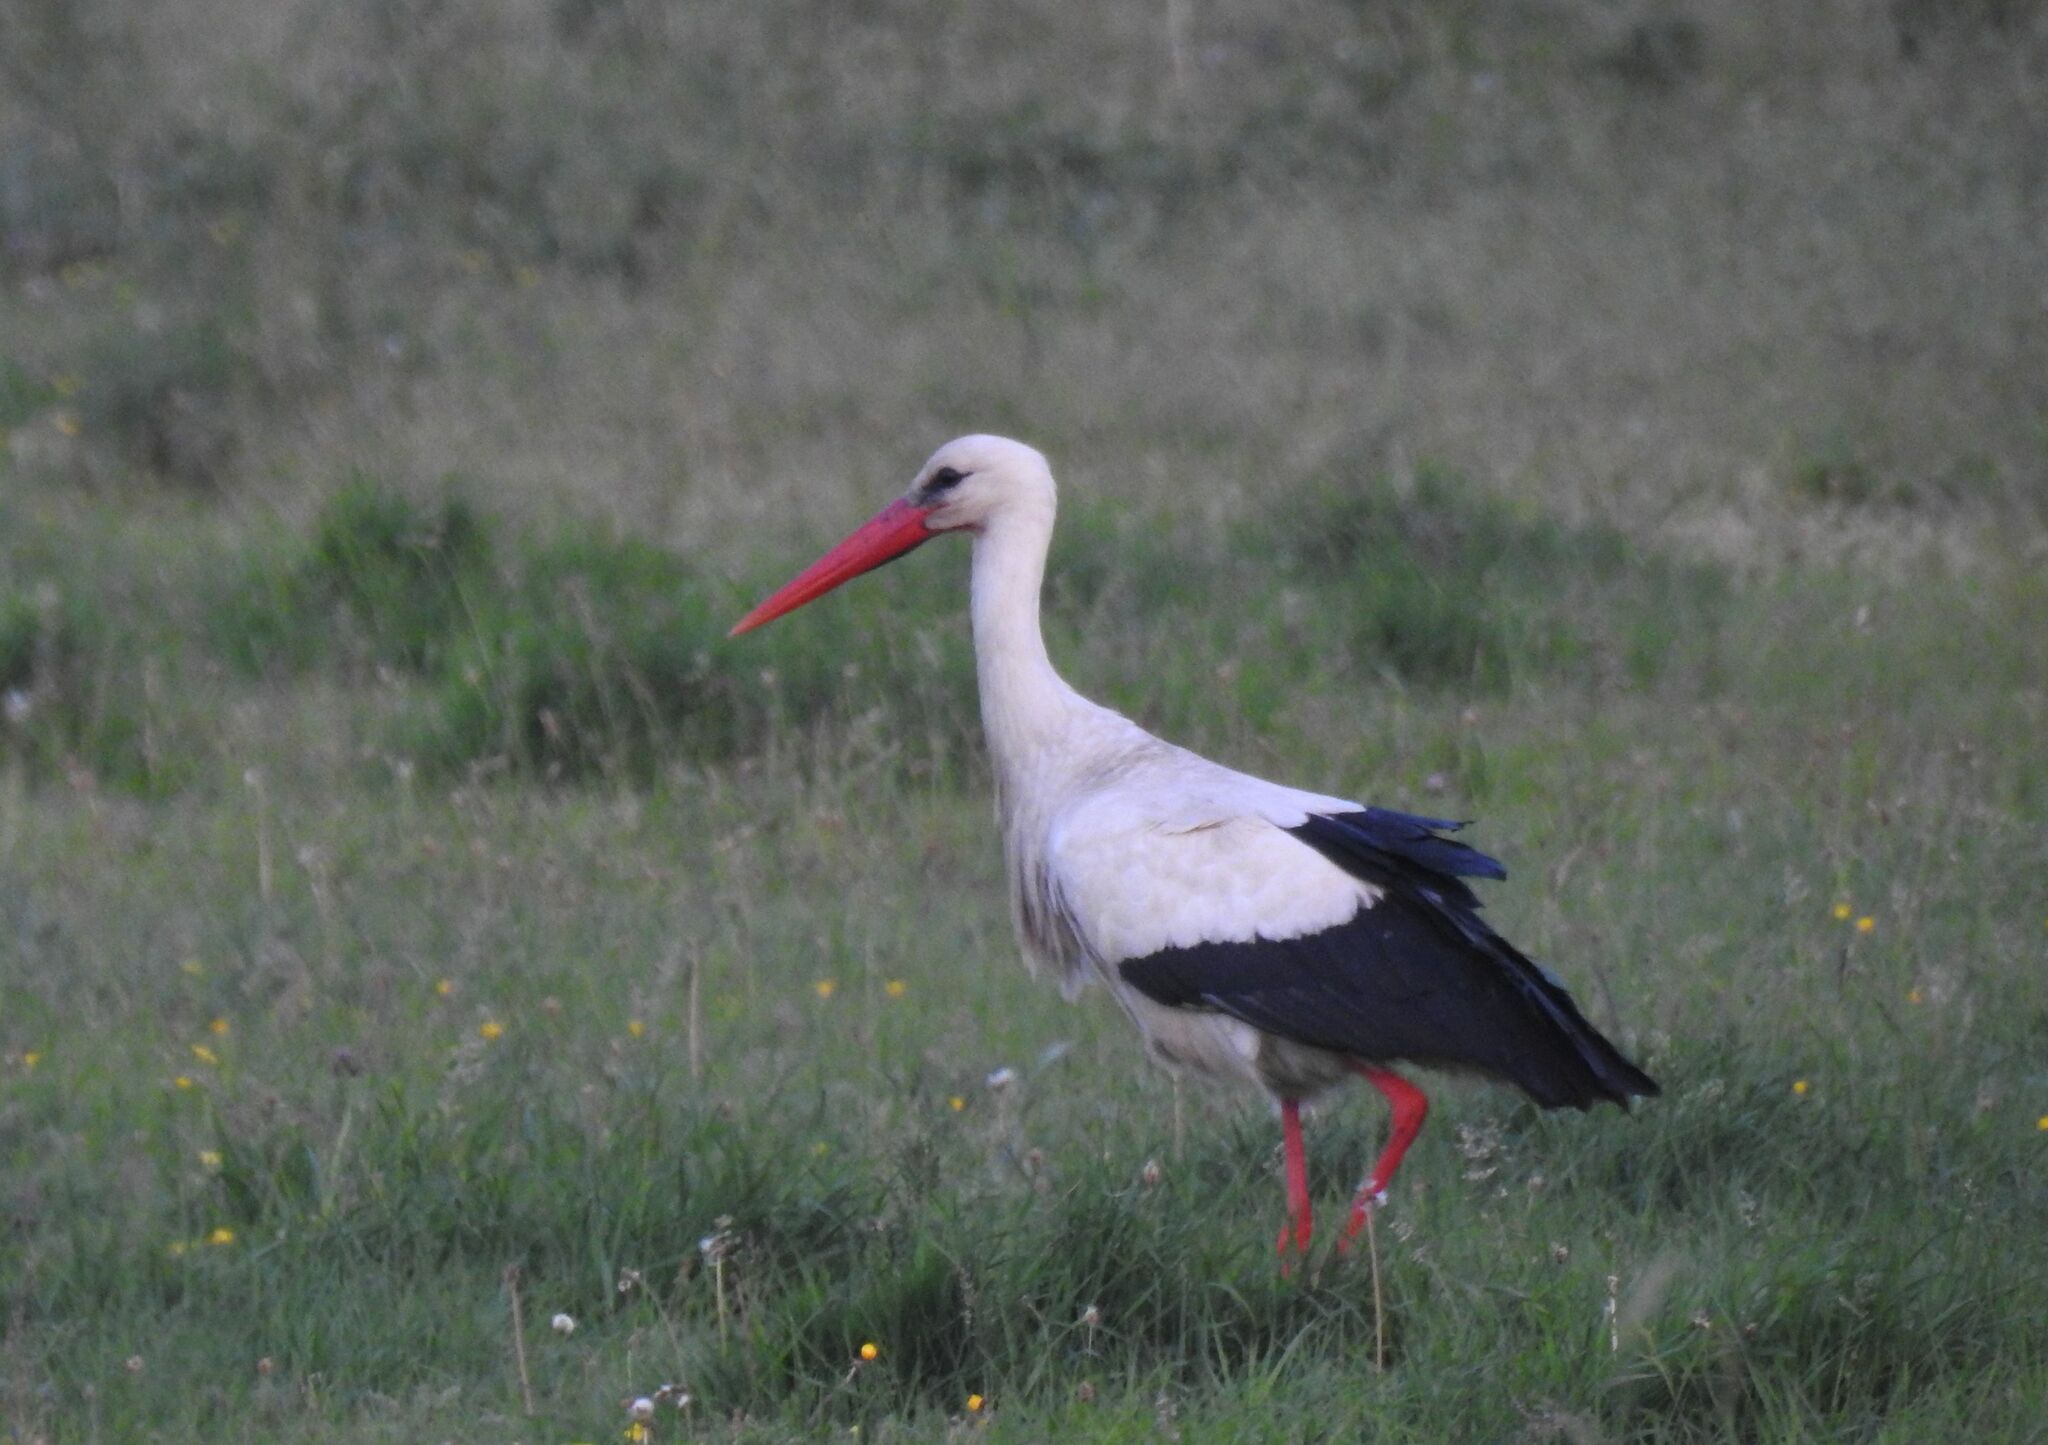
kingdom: Animalia
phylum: Chordata
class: Aves
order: Ciconiiformes
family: Ciconiidae
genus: Ciconia
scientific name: Ciconia ciconia
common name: White stork
